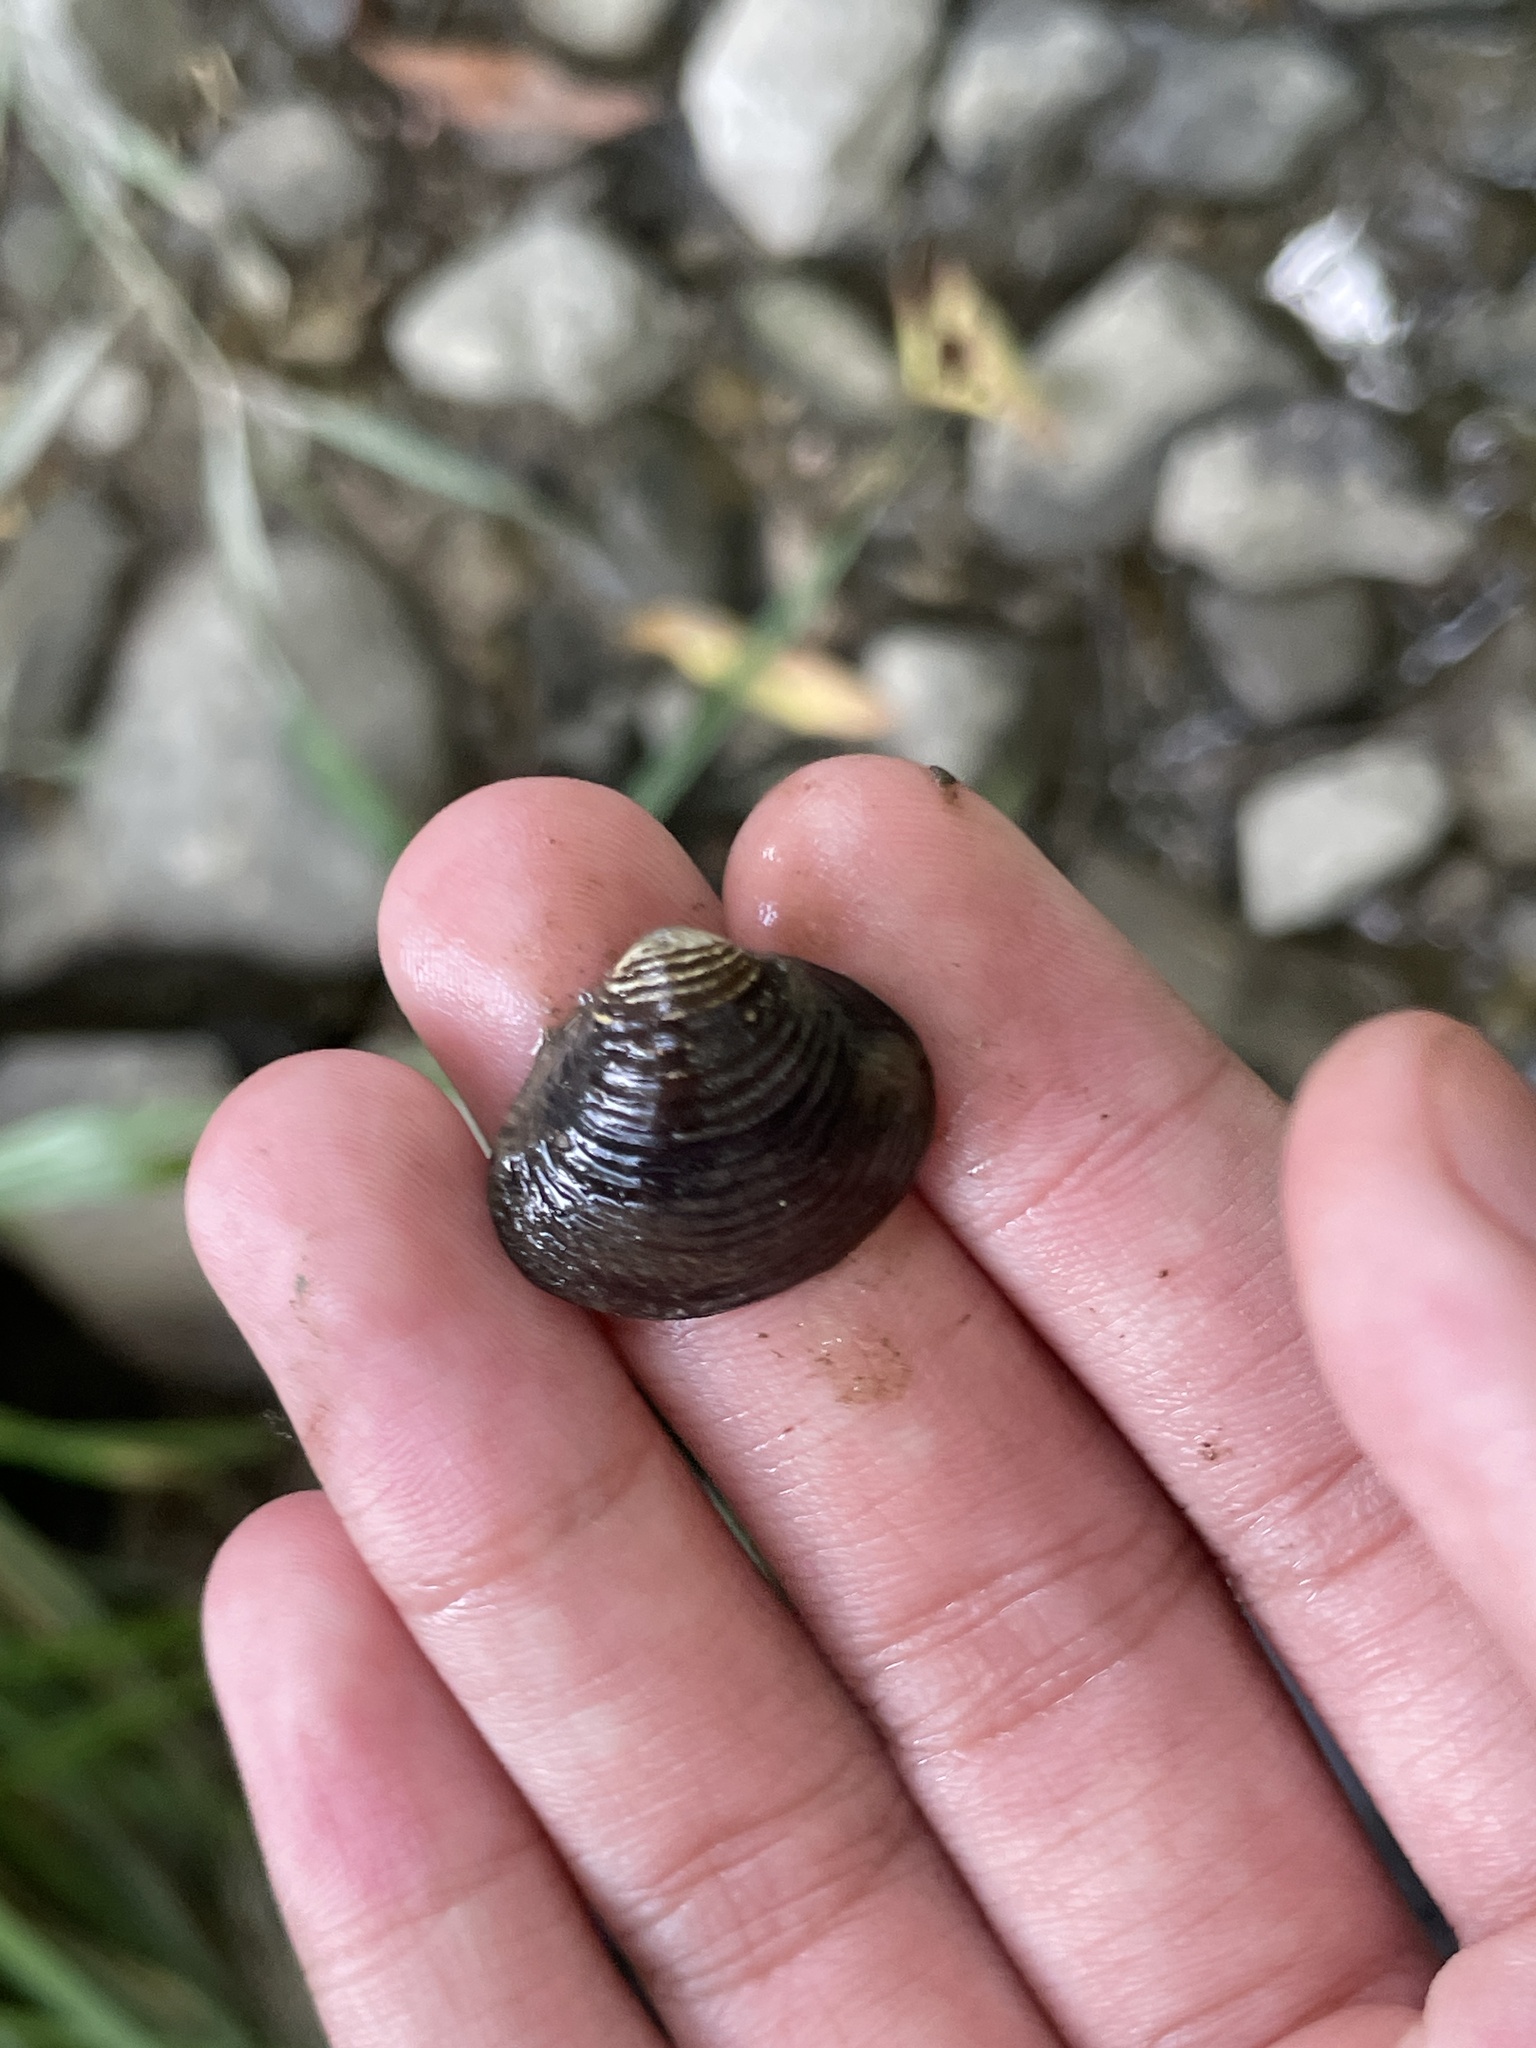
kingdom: Animalia
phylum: Mollusca
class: Bivalvia
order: Venerida
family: Cyrenidae
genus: Corbicula
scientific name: Corbicula fluminea
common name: Asian clam
